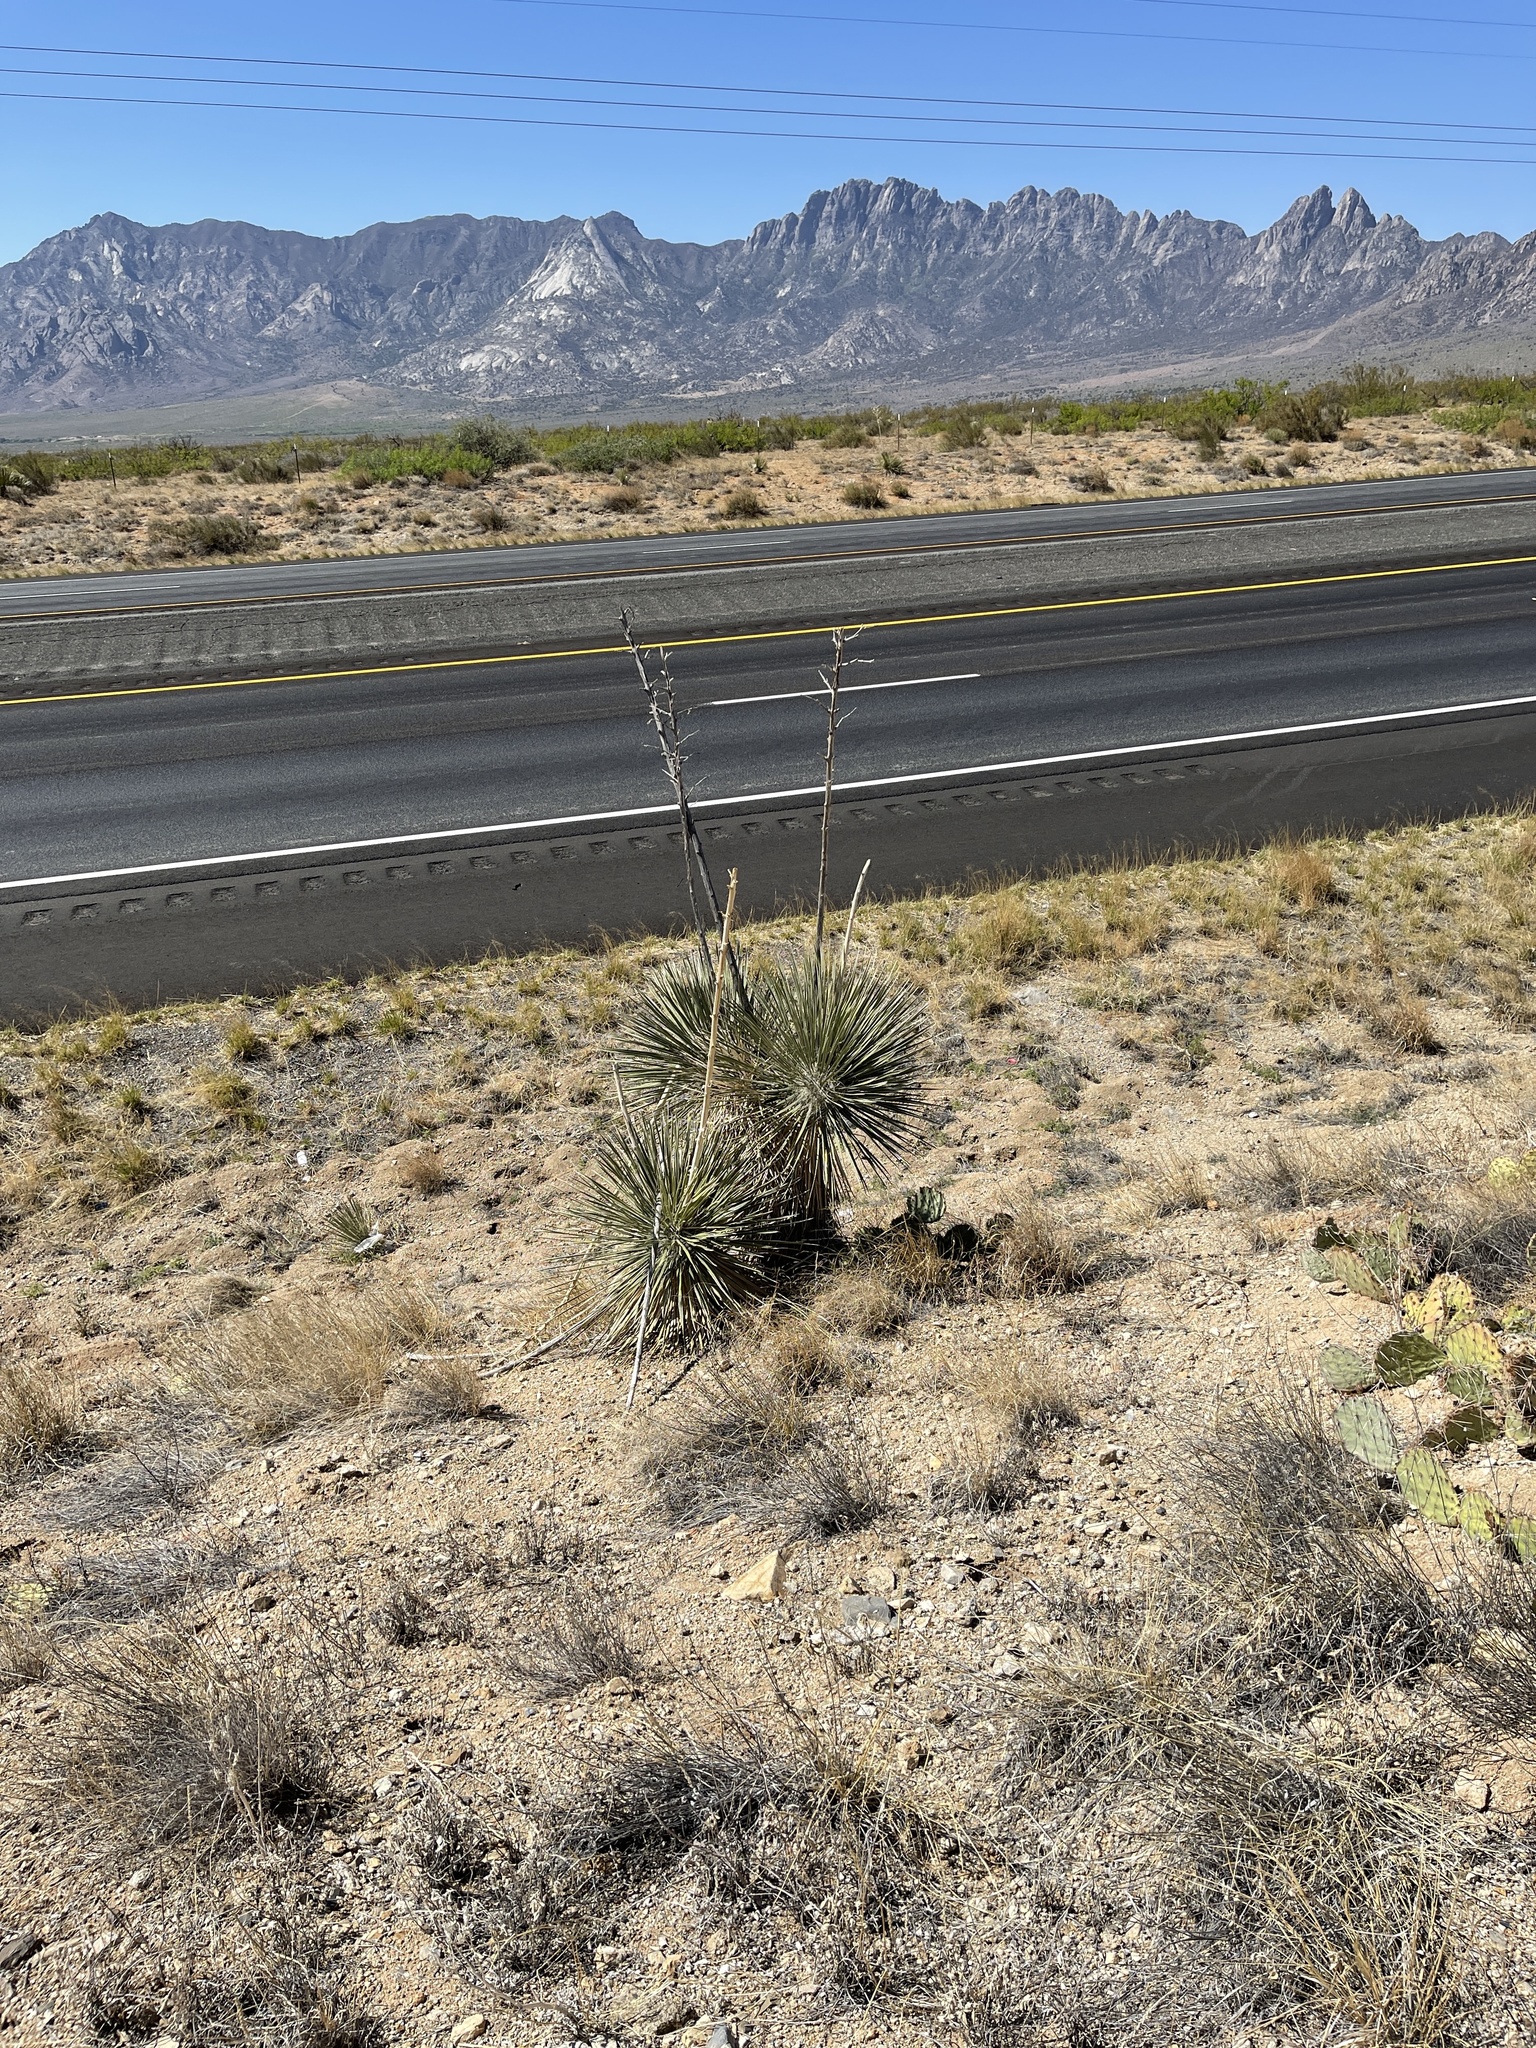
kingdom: Plantae
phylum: Tracheophyta
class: Liliopsida
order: Asparagales
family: Asparagaceae
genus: Yucca
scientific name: Yucca elata
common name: Palmella
